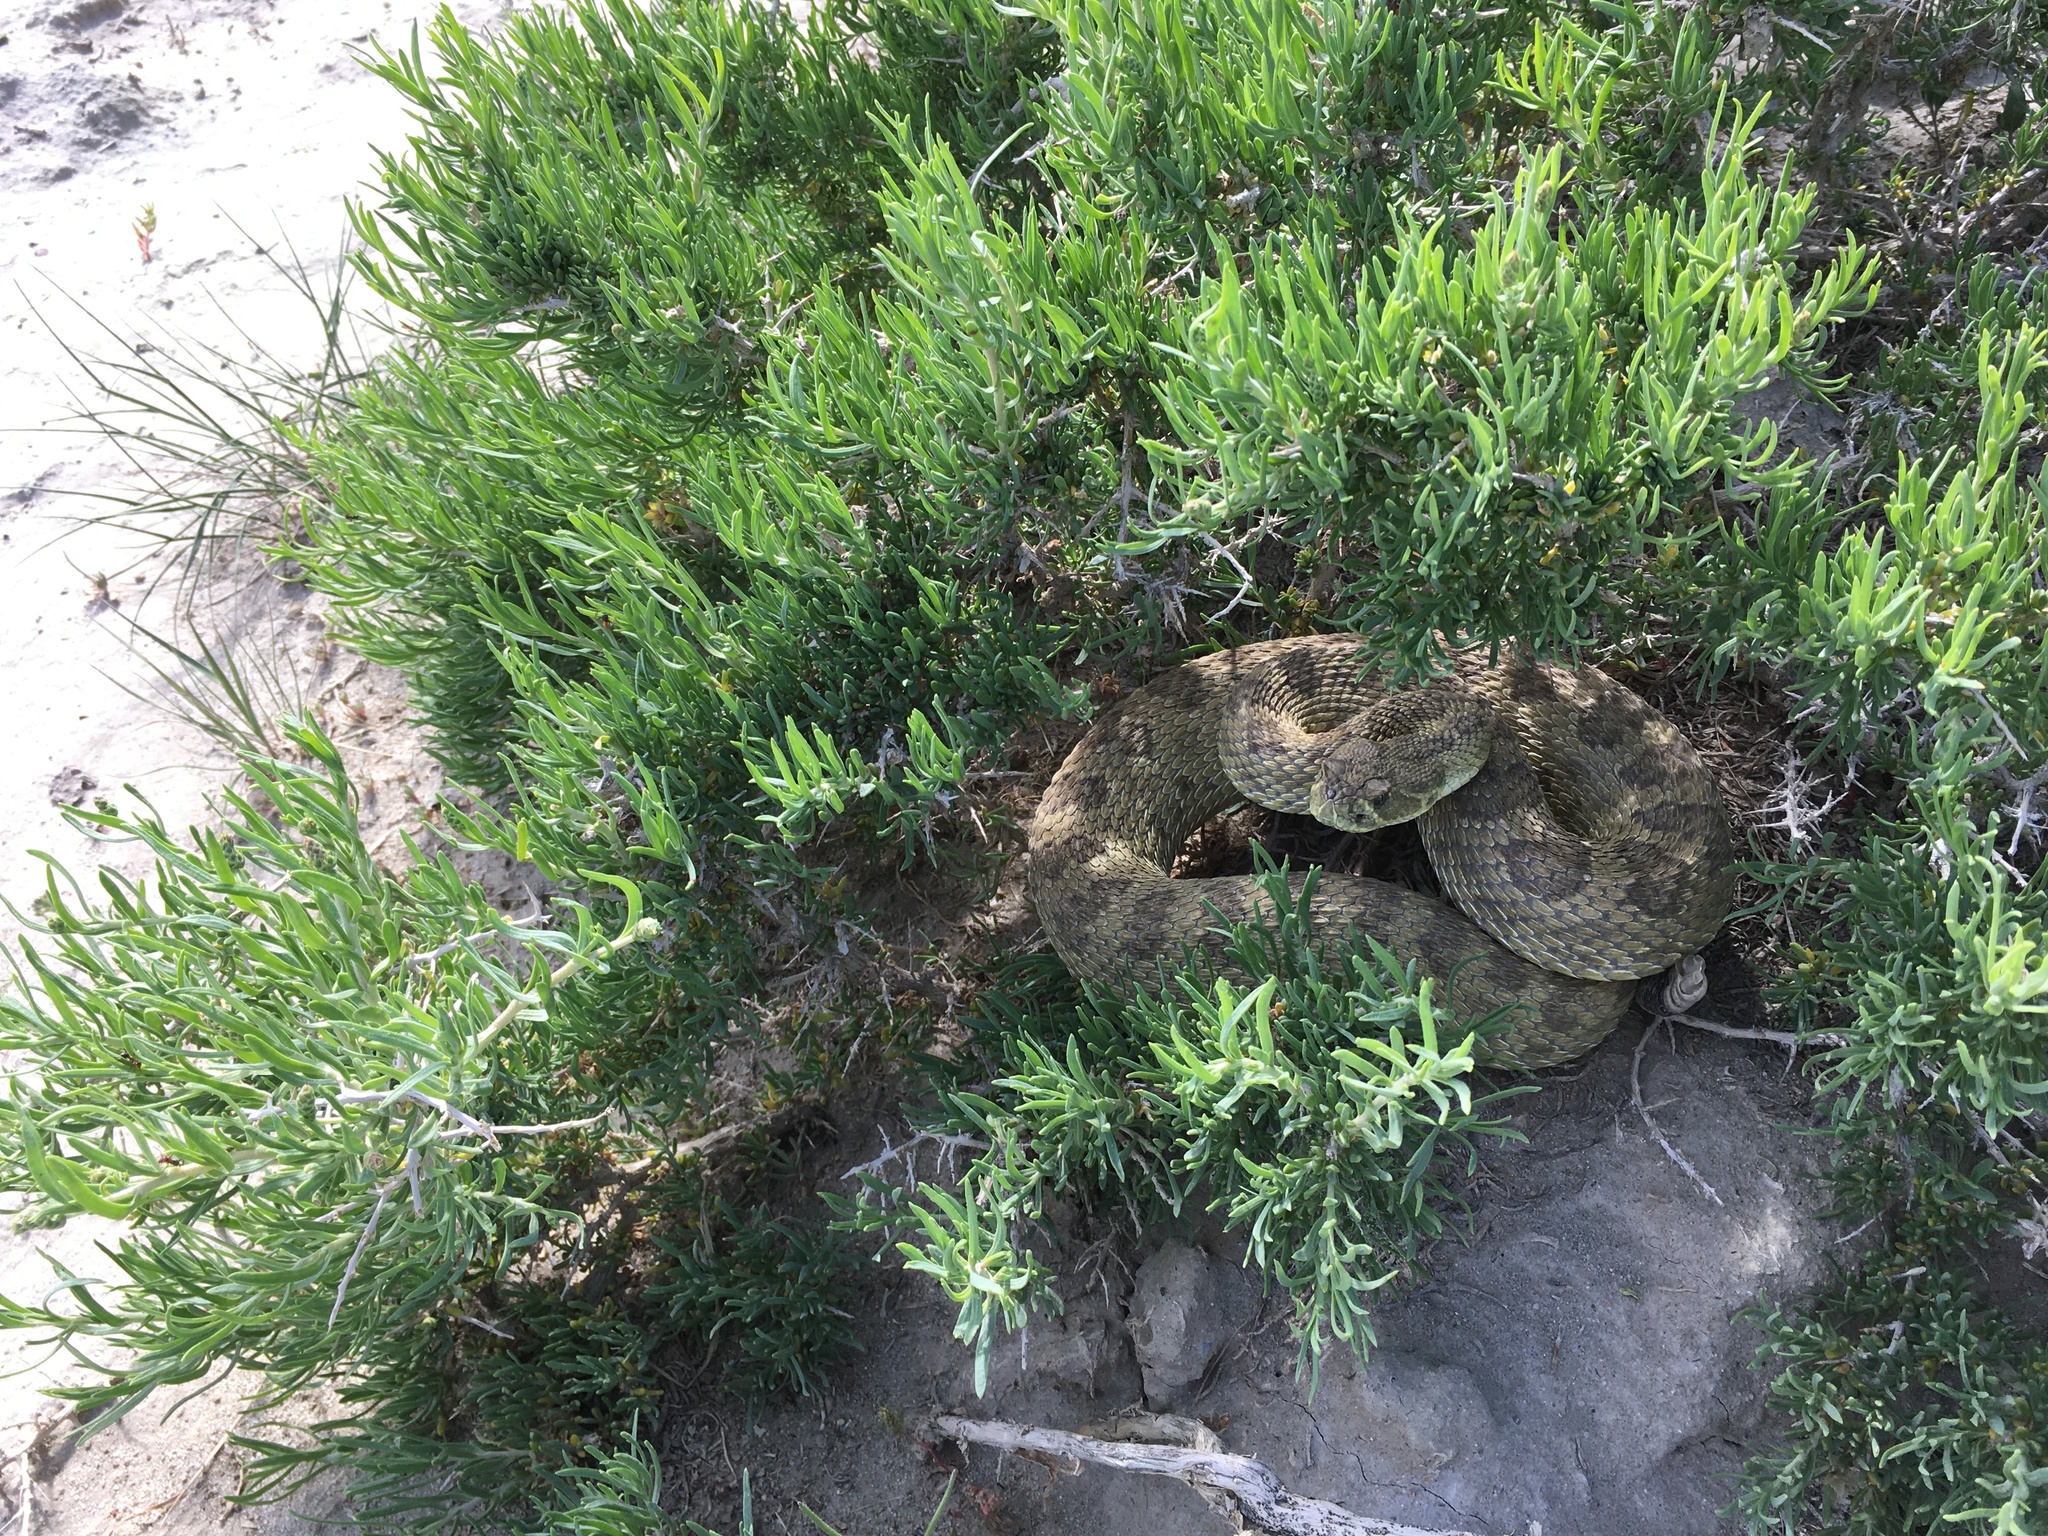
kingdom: Animalia
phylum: Chordata
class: Squamata
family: Viperidae
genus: Crotalus
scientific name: Crotalus viridis
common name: Prairie rattlesnake
